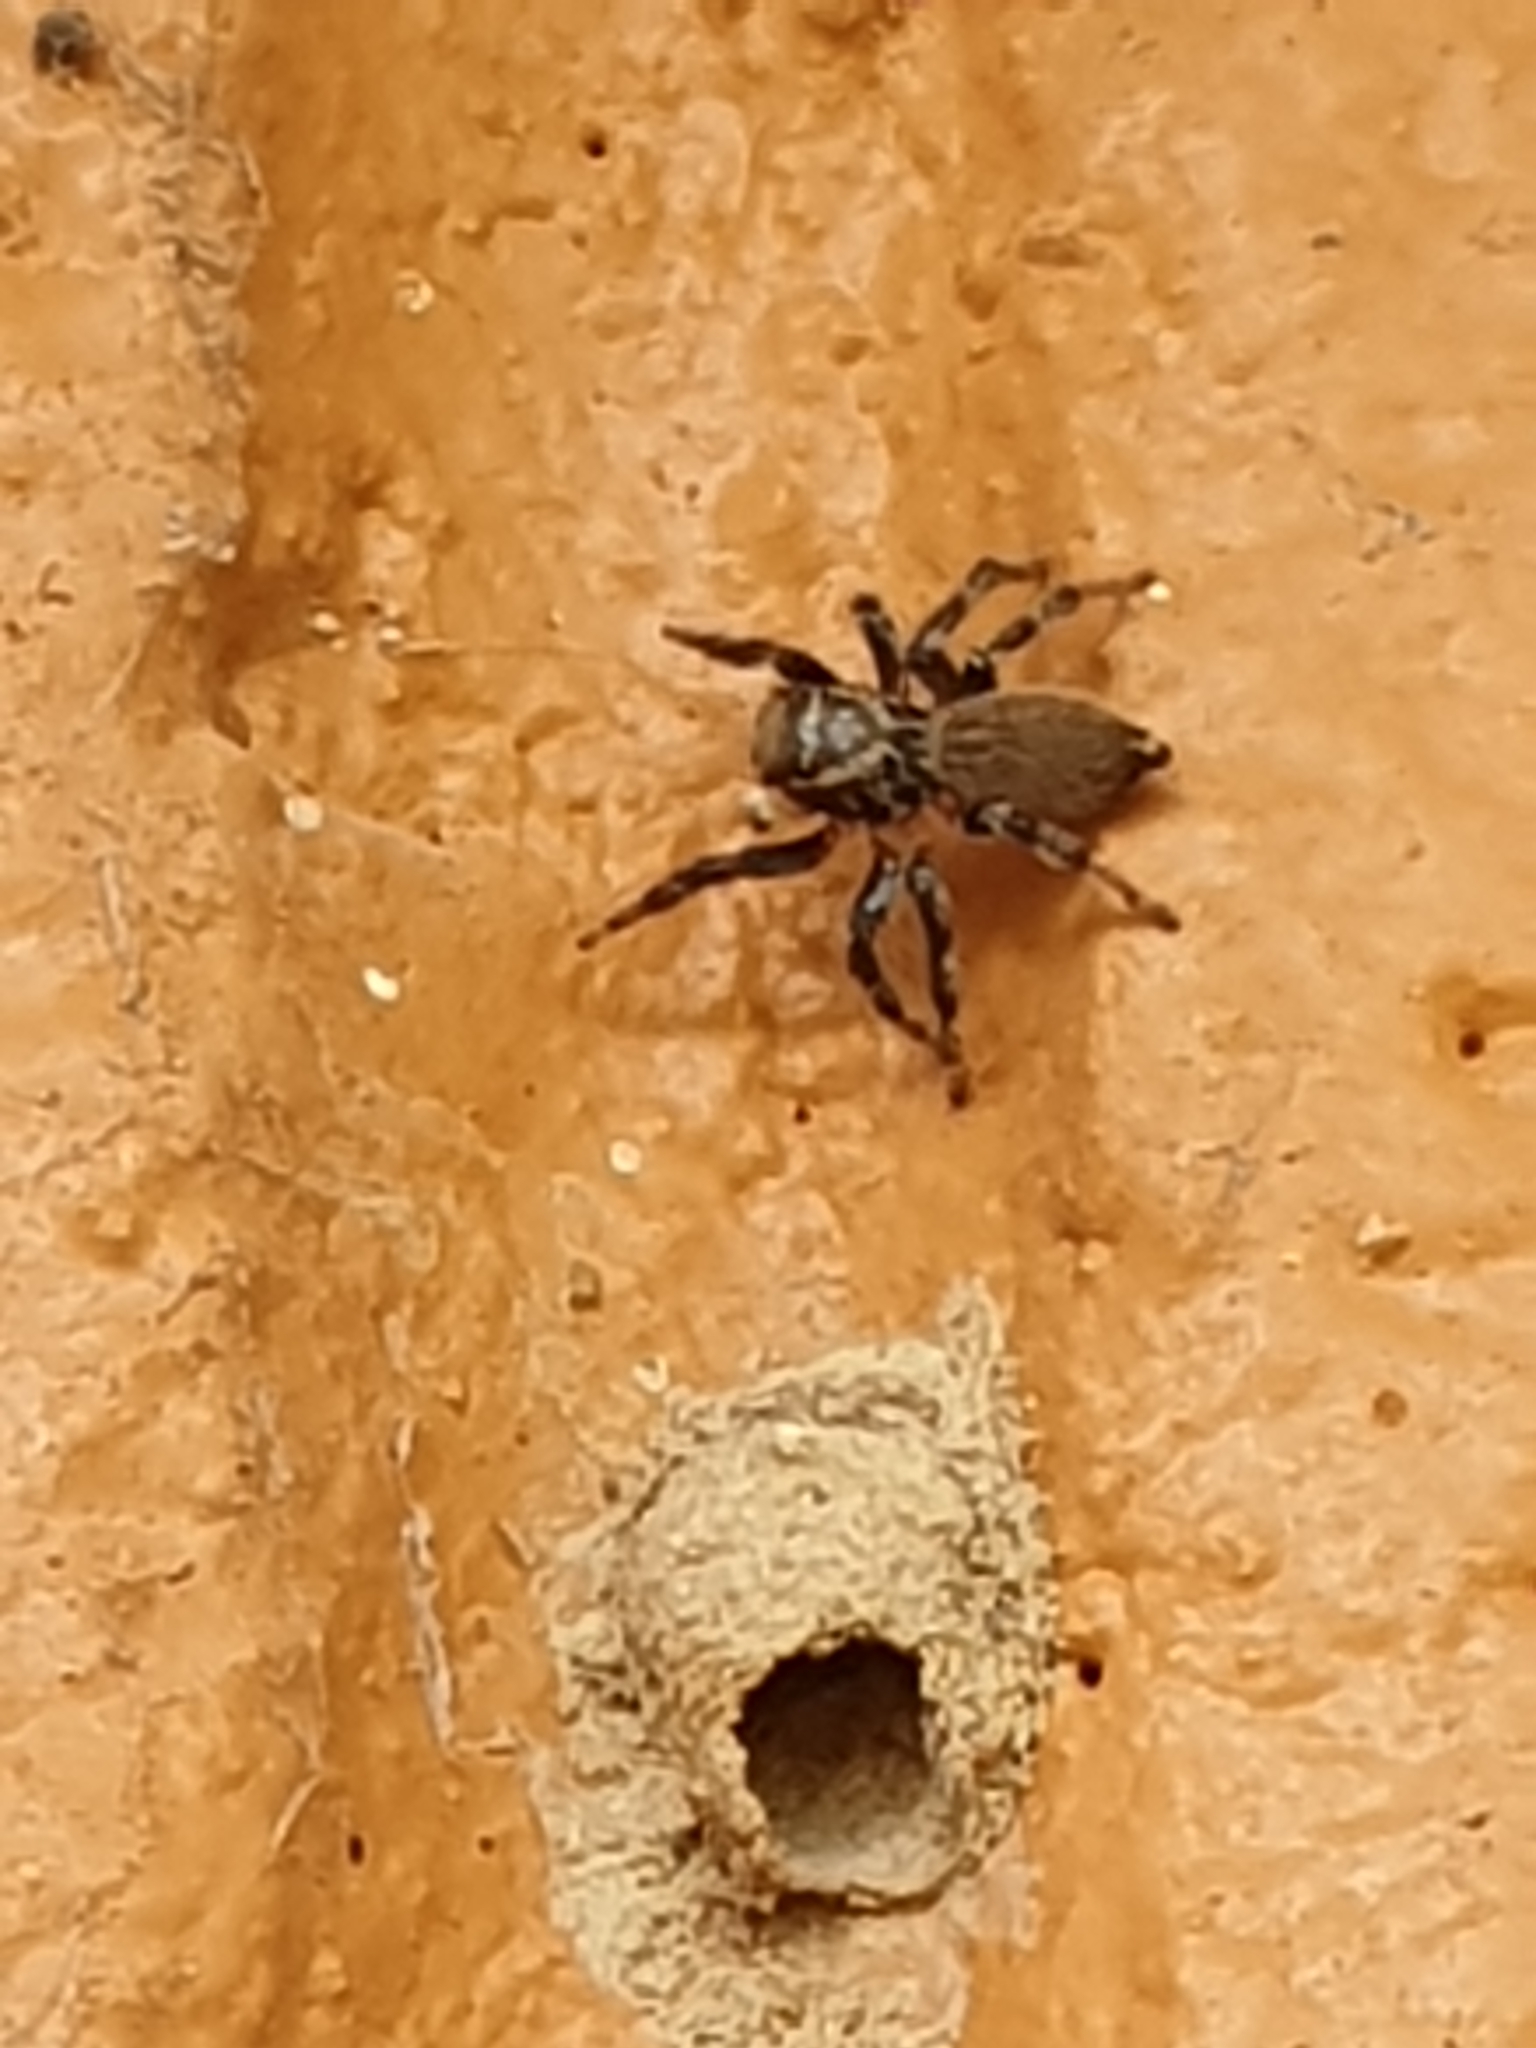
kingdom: Animalia
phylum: Arthropoda
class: Arachnida
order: Araneae
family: Salticidae
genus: Maratus
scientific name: Maratus griseus
